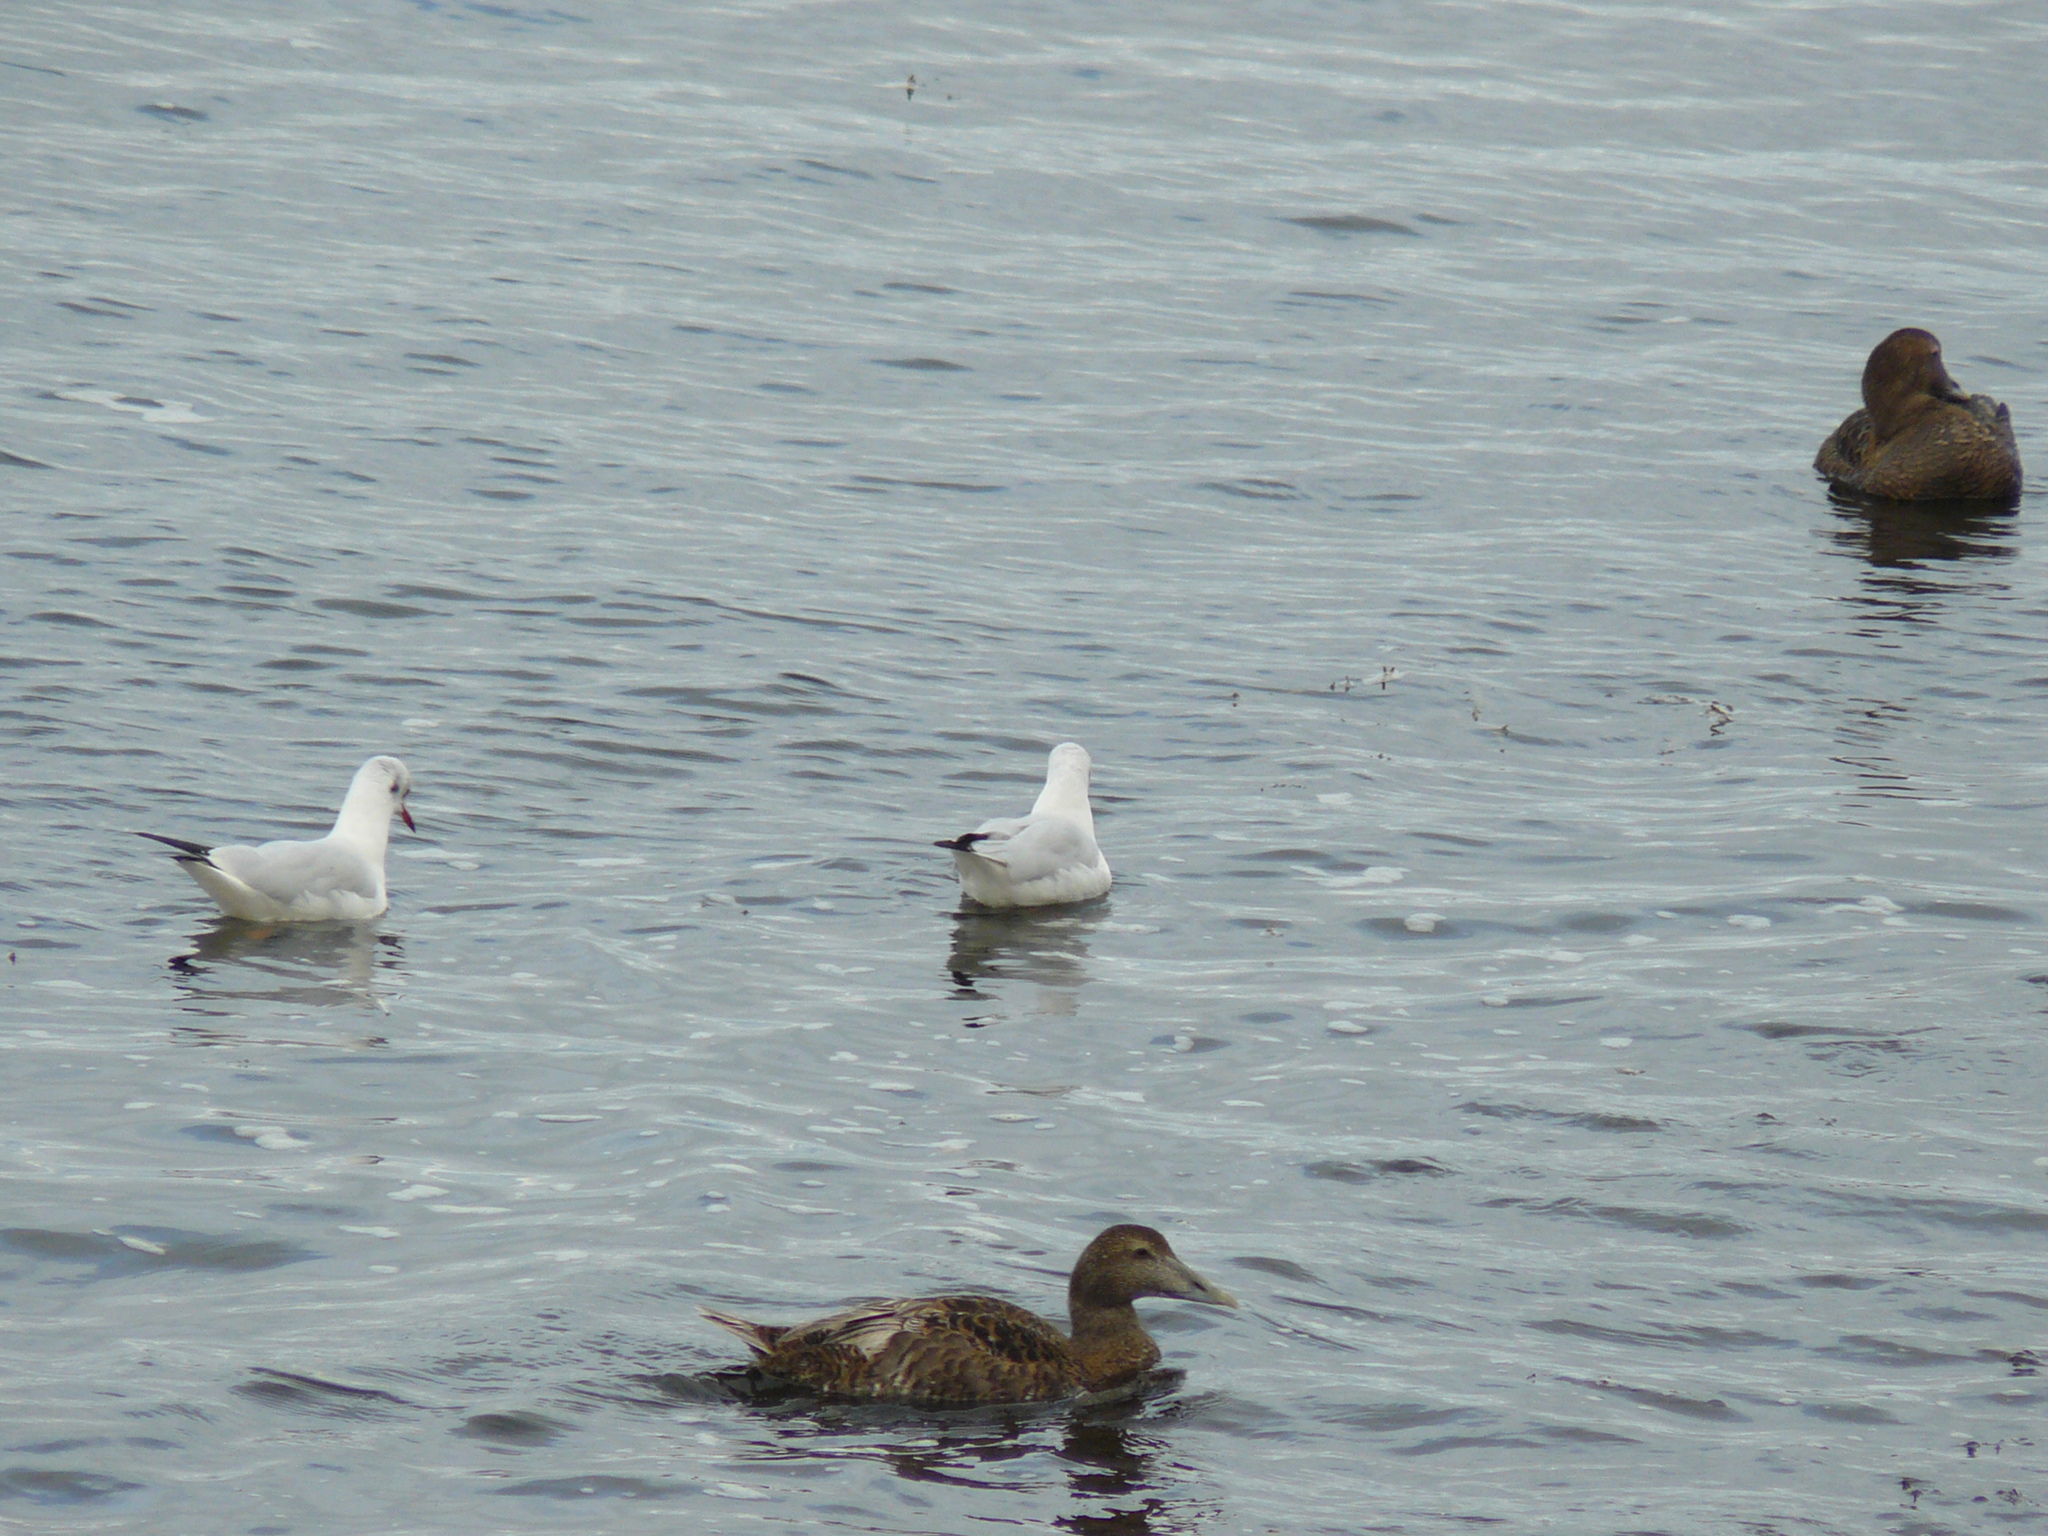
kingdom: Animalia
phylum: Chordata
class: Aves
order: Anseriformes
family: Anatidae
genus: Somateria
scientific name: Somateria mollissima
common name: Common eider
